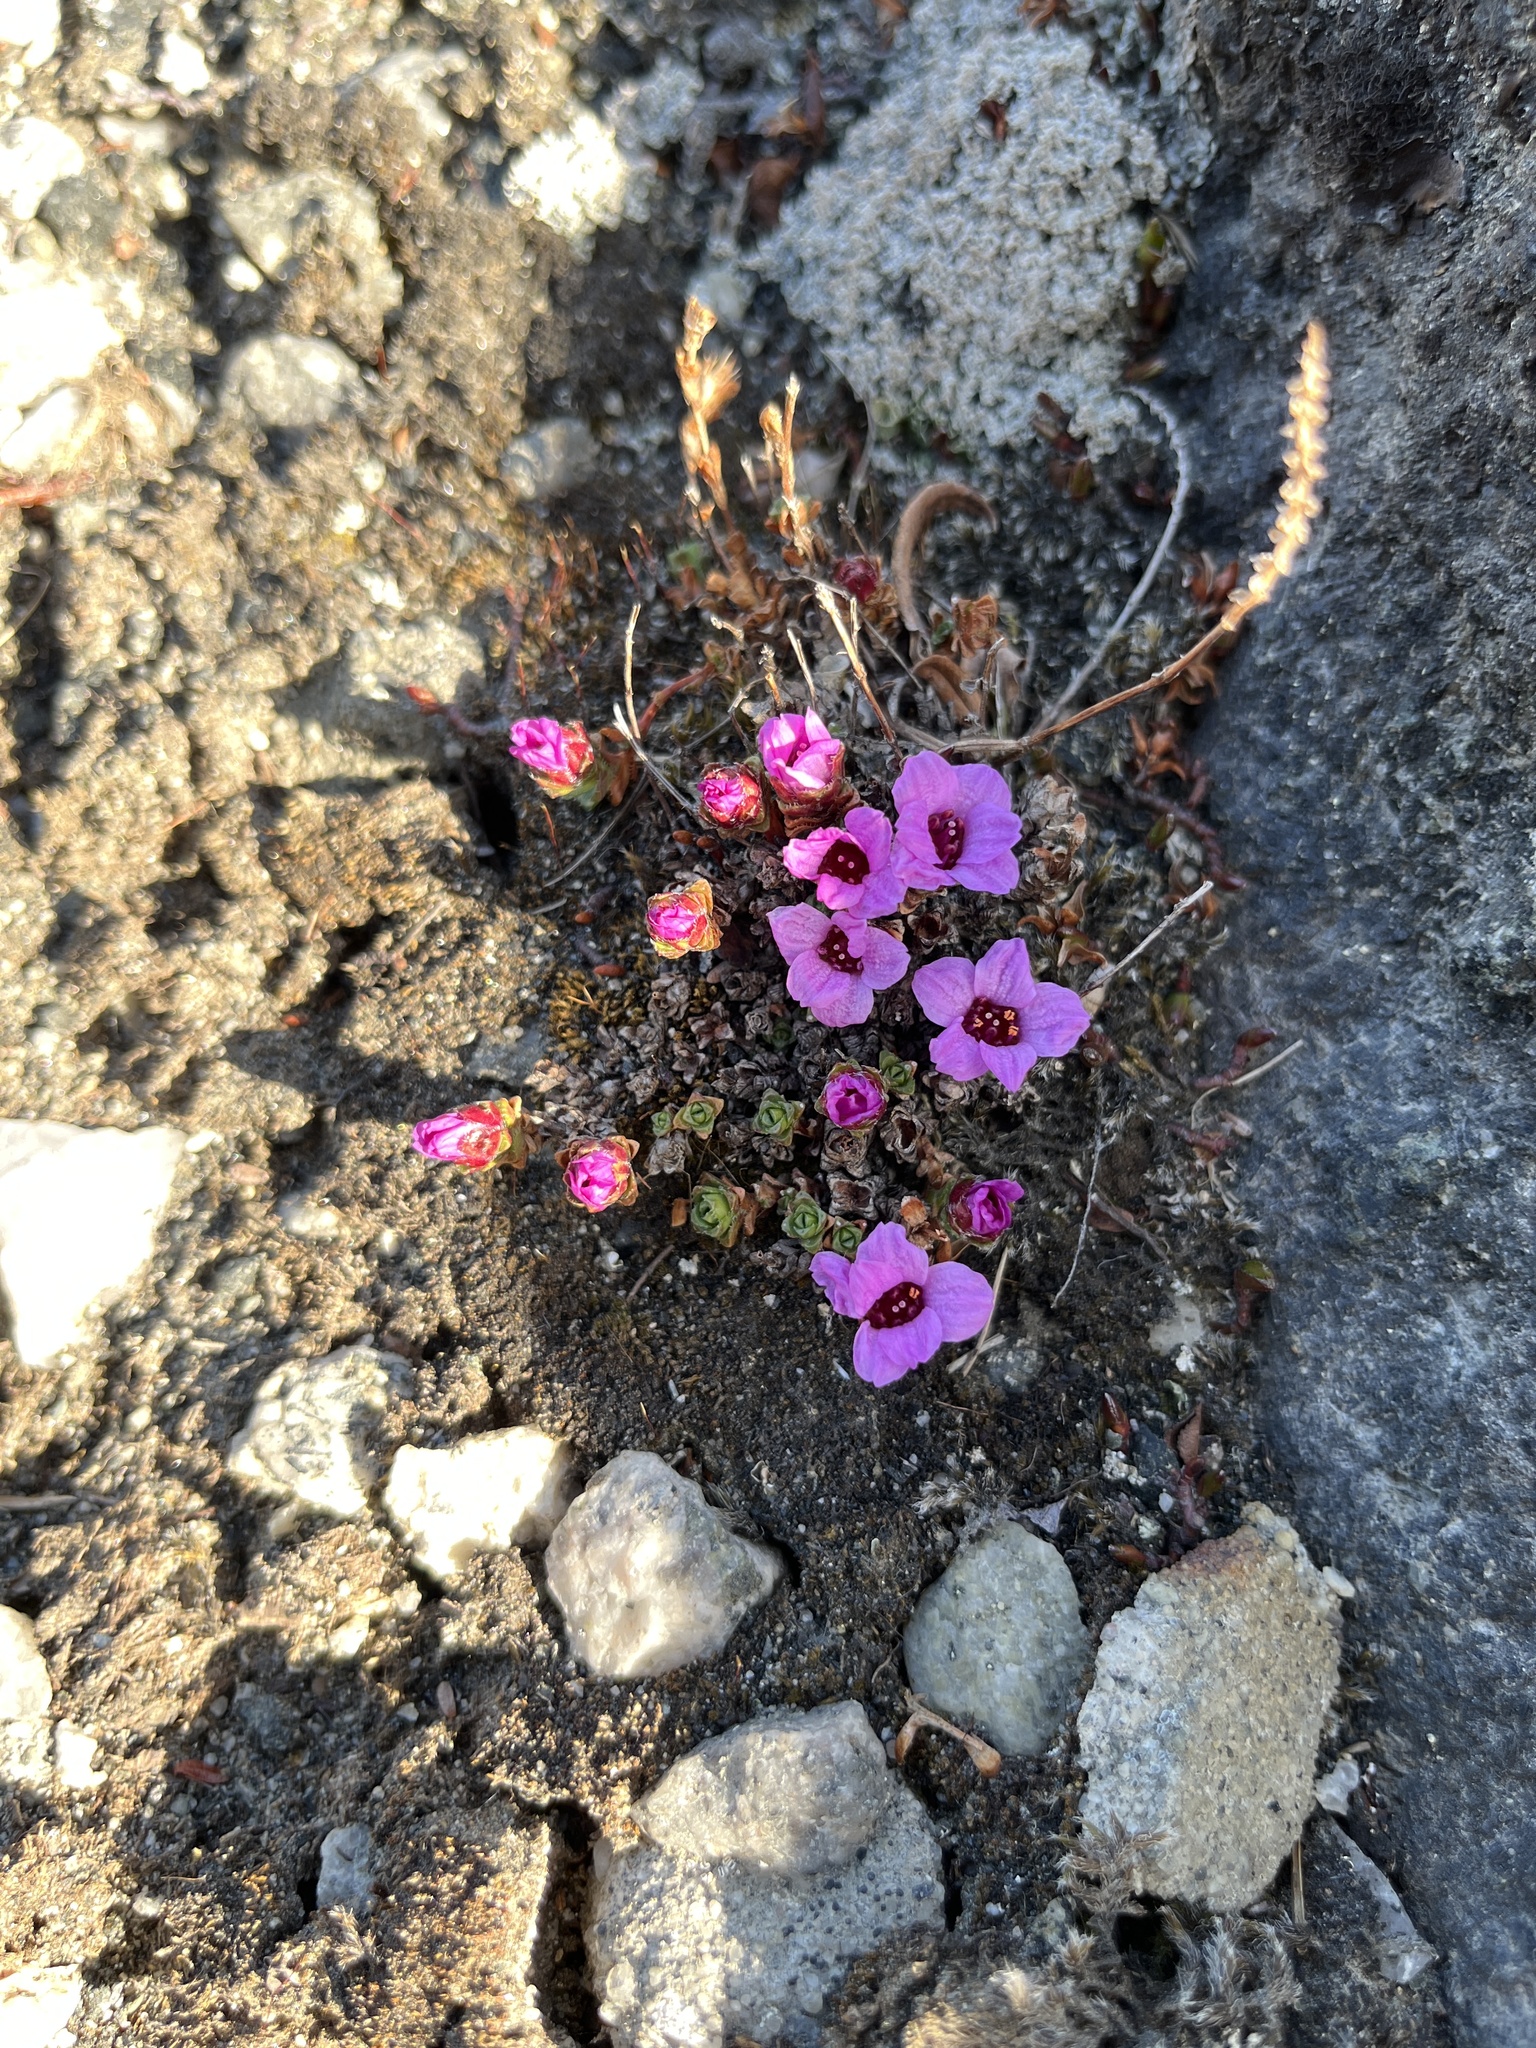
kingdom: Plantae
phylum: Tracheophyta
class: Magnoliopsida
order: Saxifragales
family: Saxifragaceae
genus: Saxifraga
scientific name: Saxifraga oppositifolia
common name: Purple saxifrage
